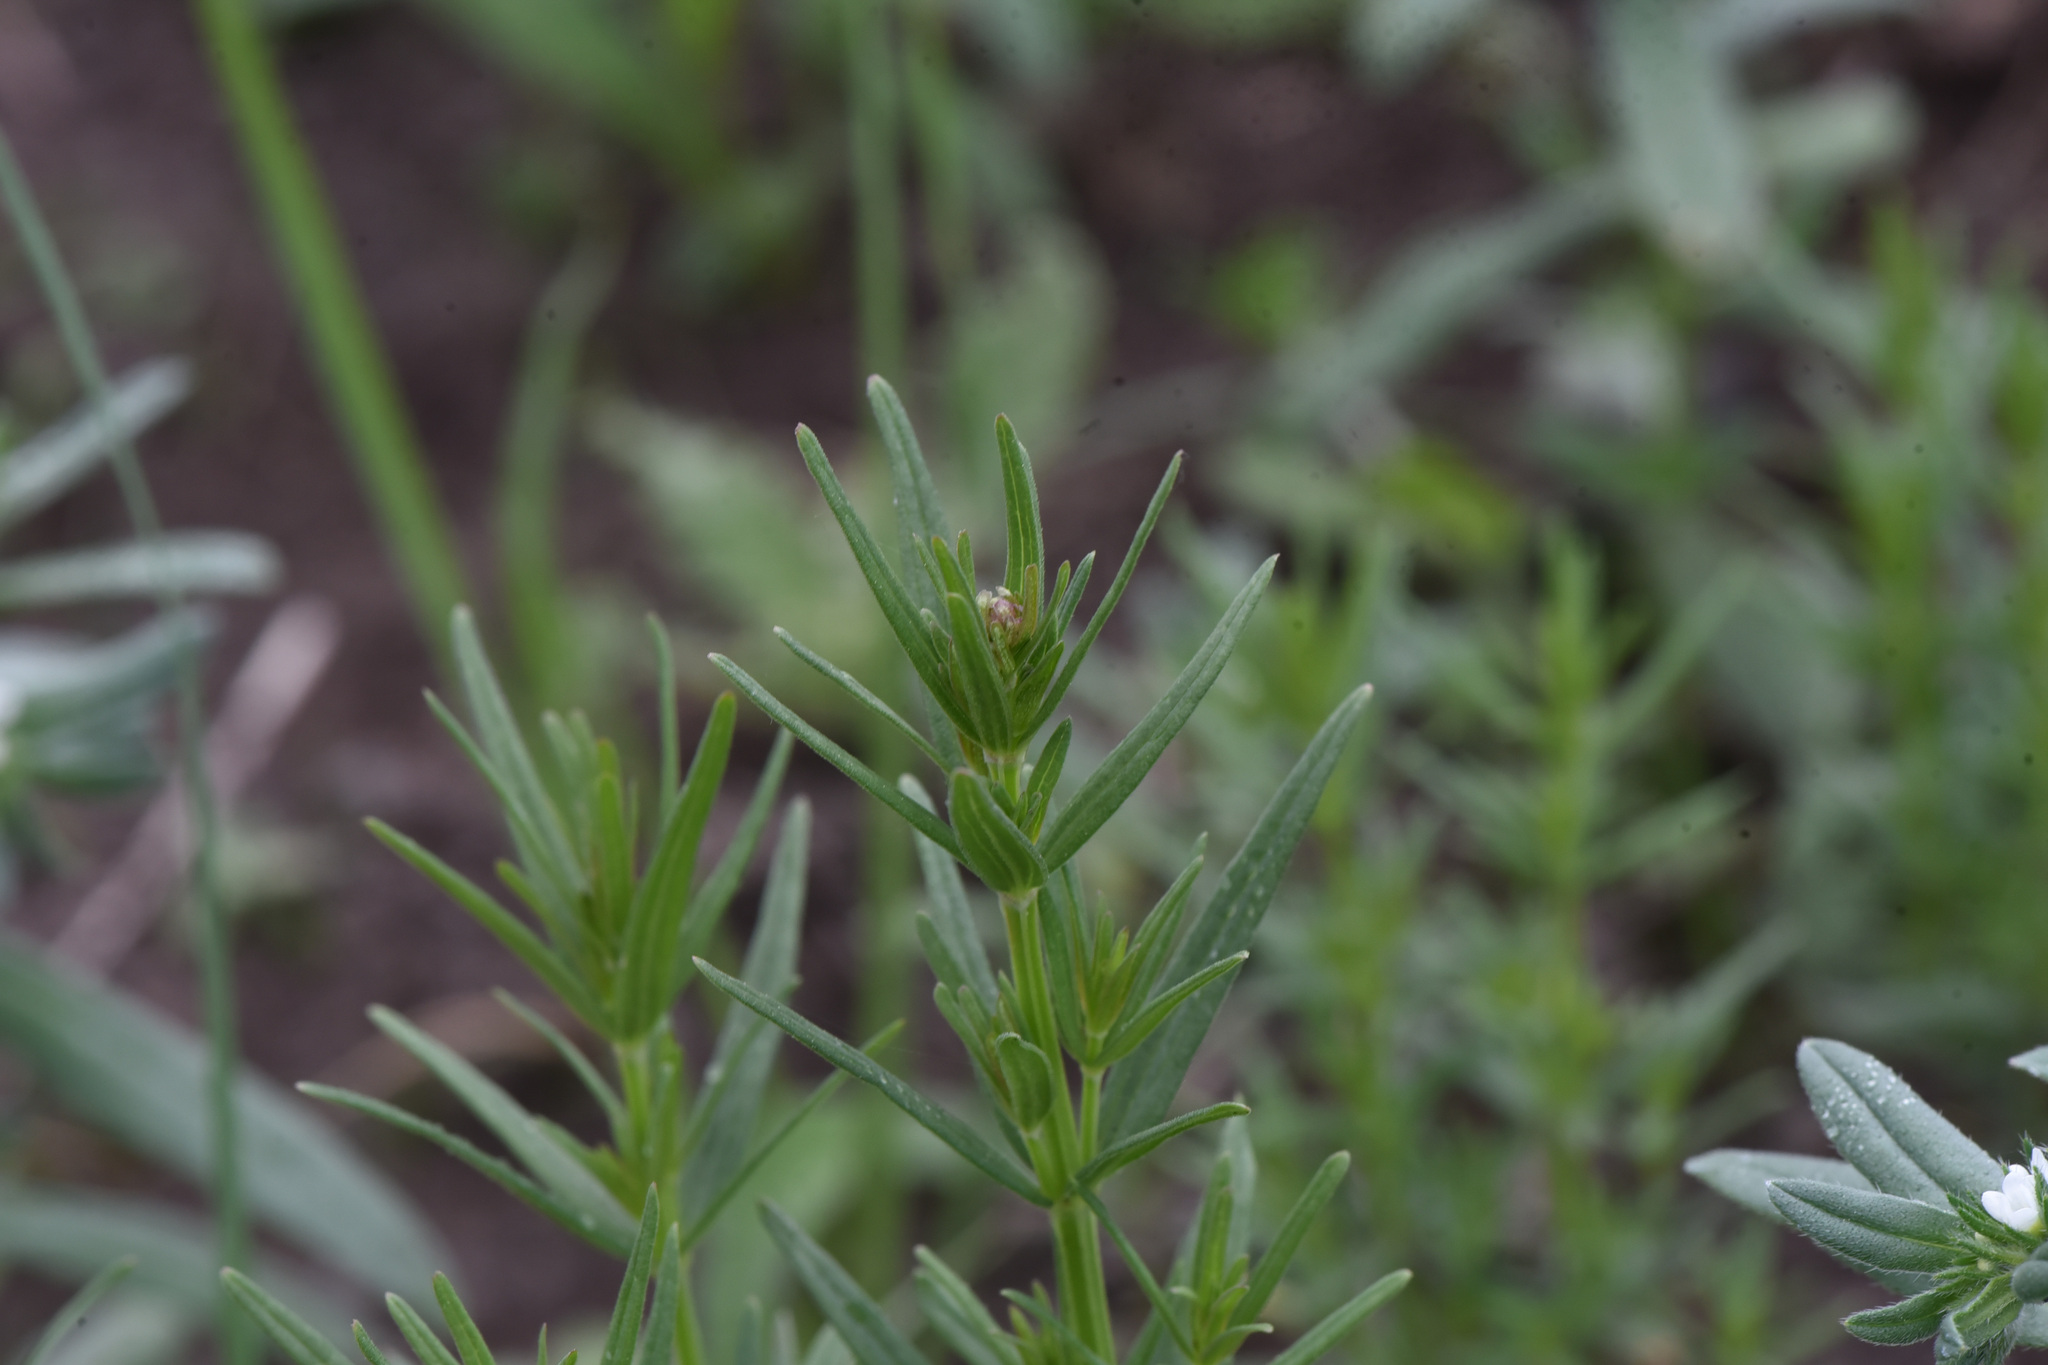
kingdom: Plantae
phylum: Tracheophyta
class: Magnoliopsida
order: Gentianales
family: Rubiaceae
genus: Galium
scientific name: Galium boreale
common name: Northern bedstraw
